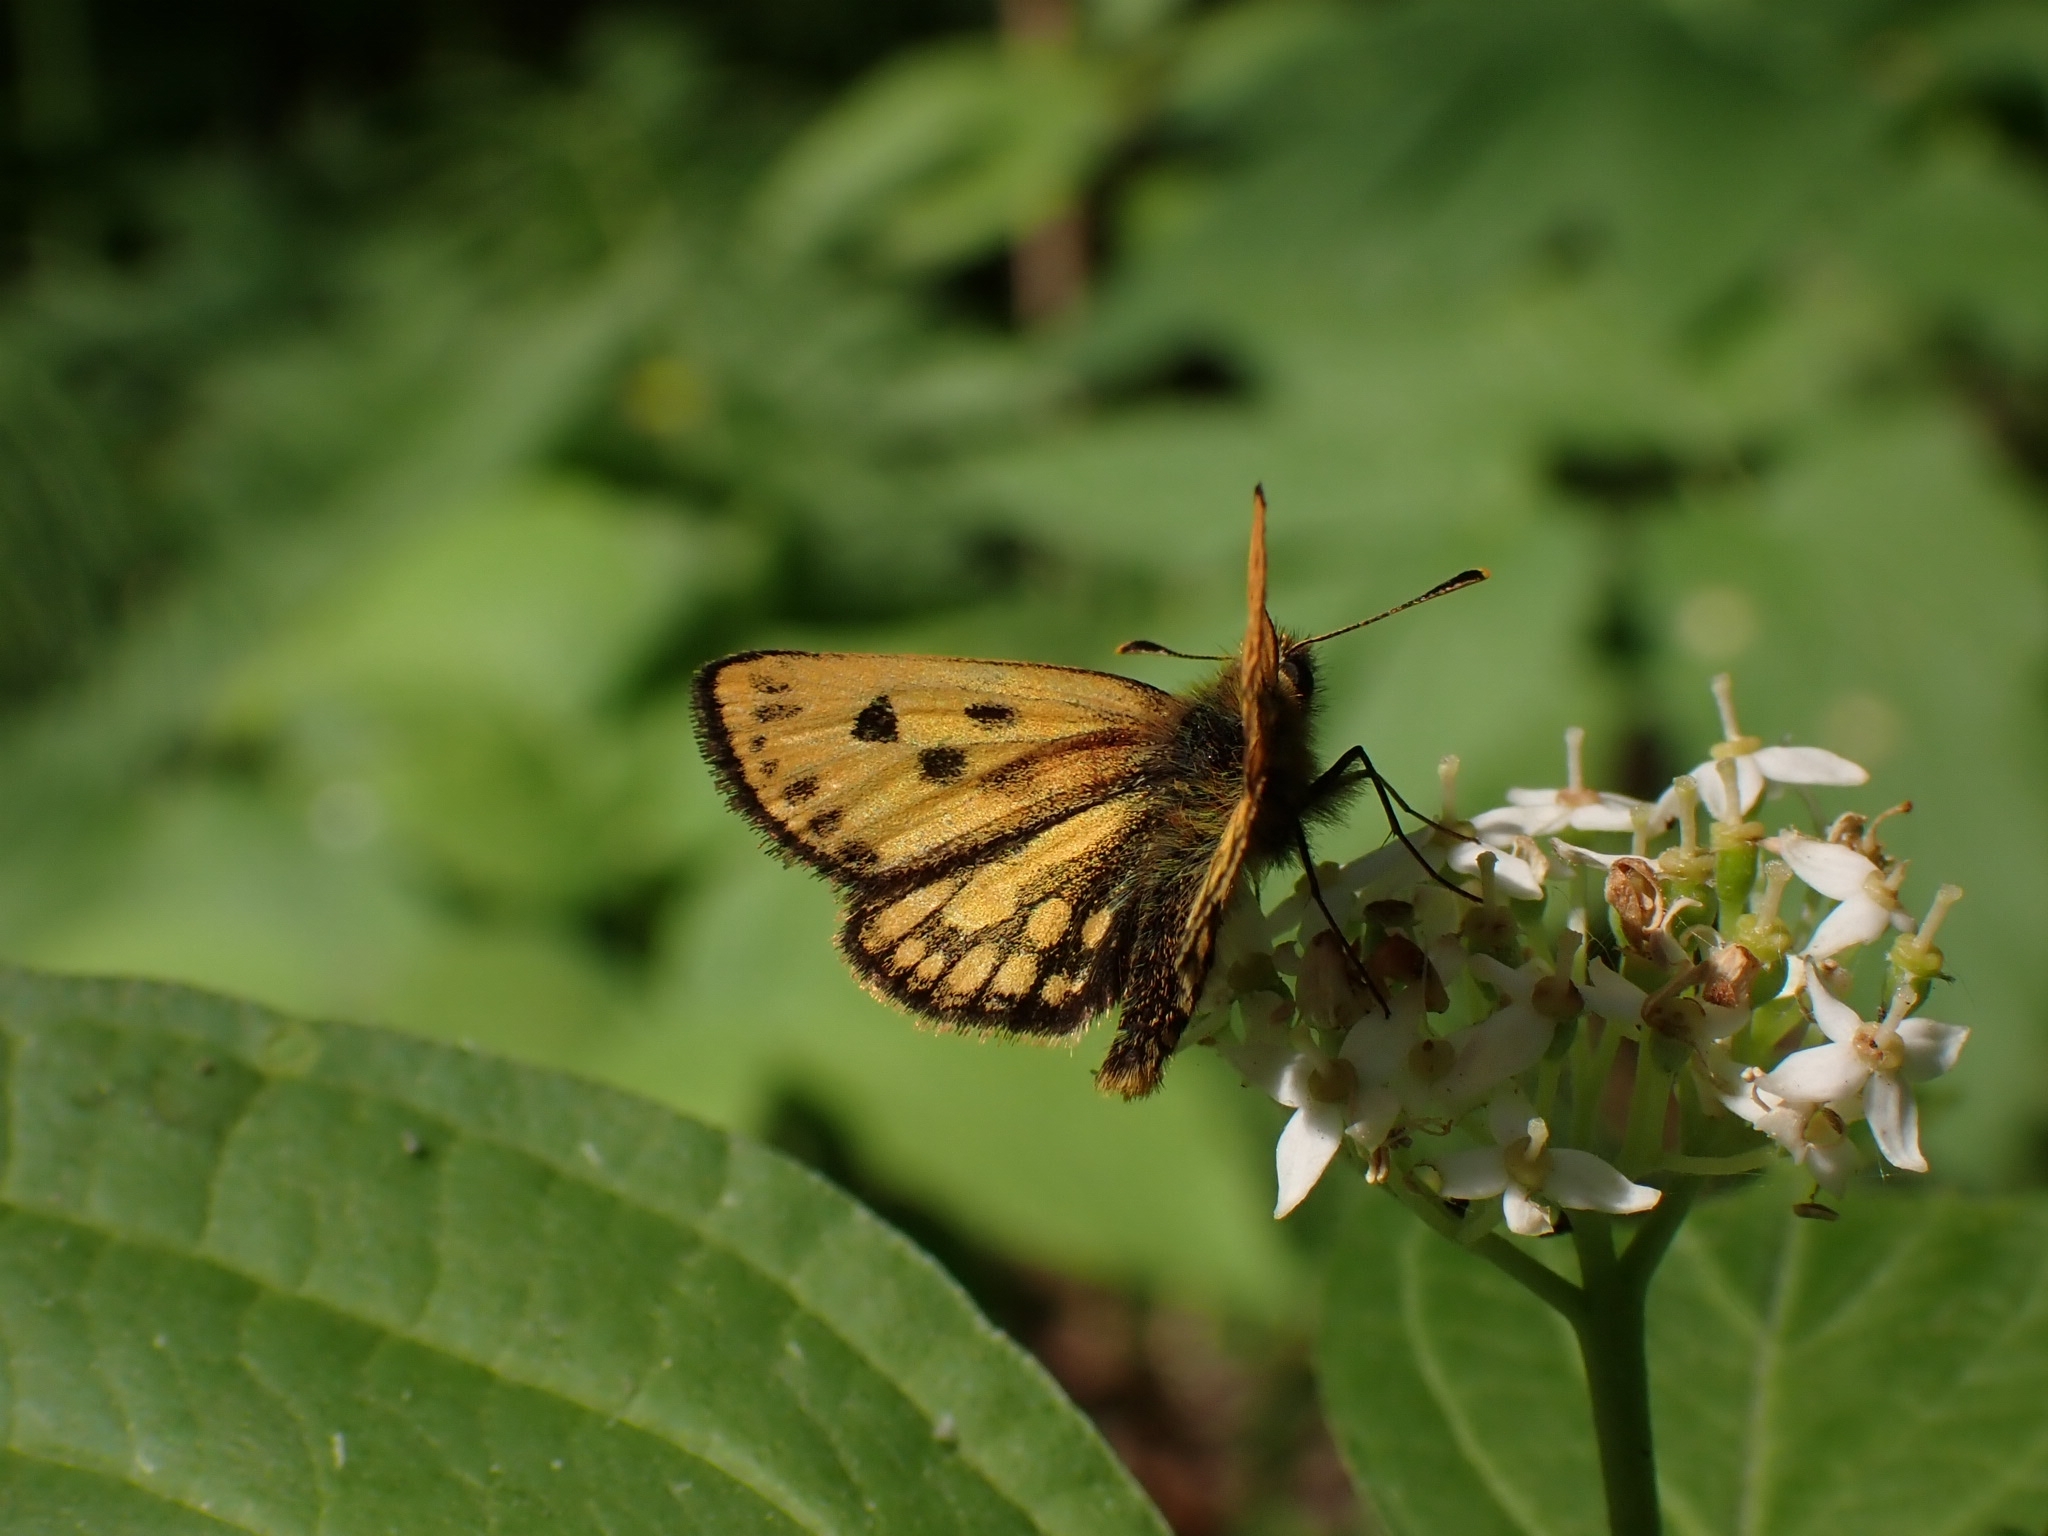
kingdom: Animalia
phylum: Arthropoda
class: Insecta
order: Lepidoptera
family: Hesperiidae
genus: Carterocephalus
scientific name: Carterocephalus silvicola
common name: Northern chequered skipper
